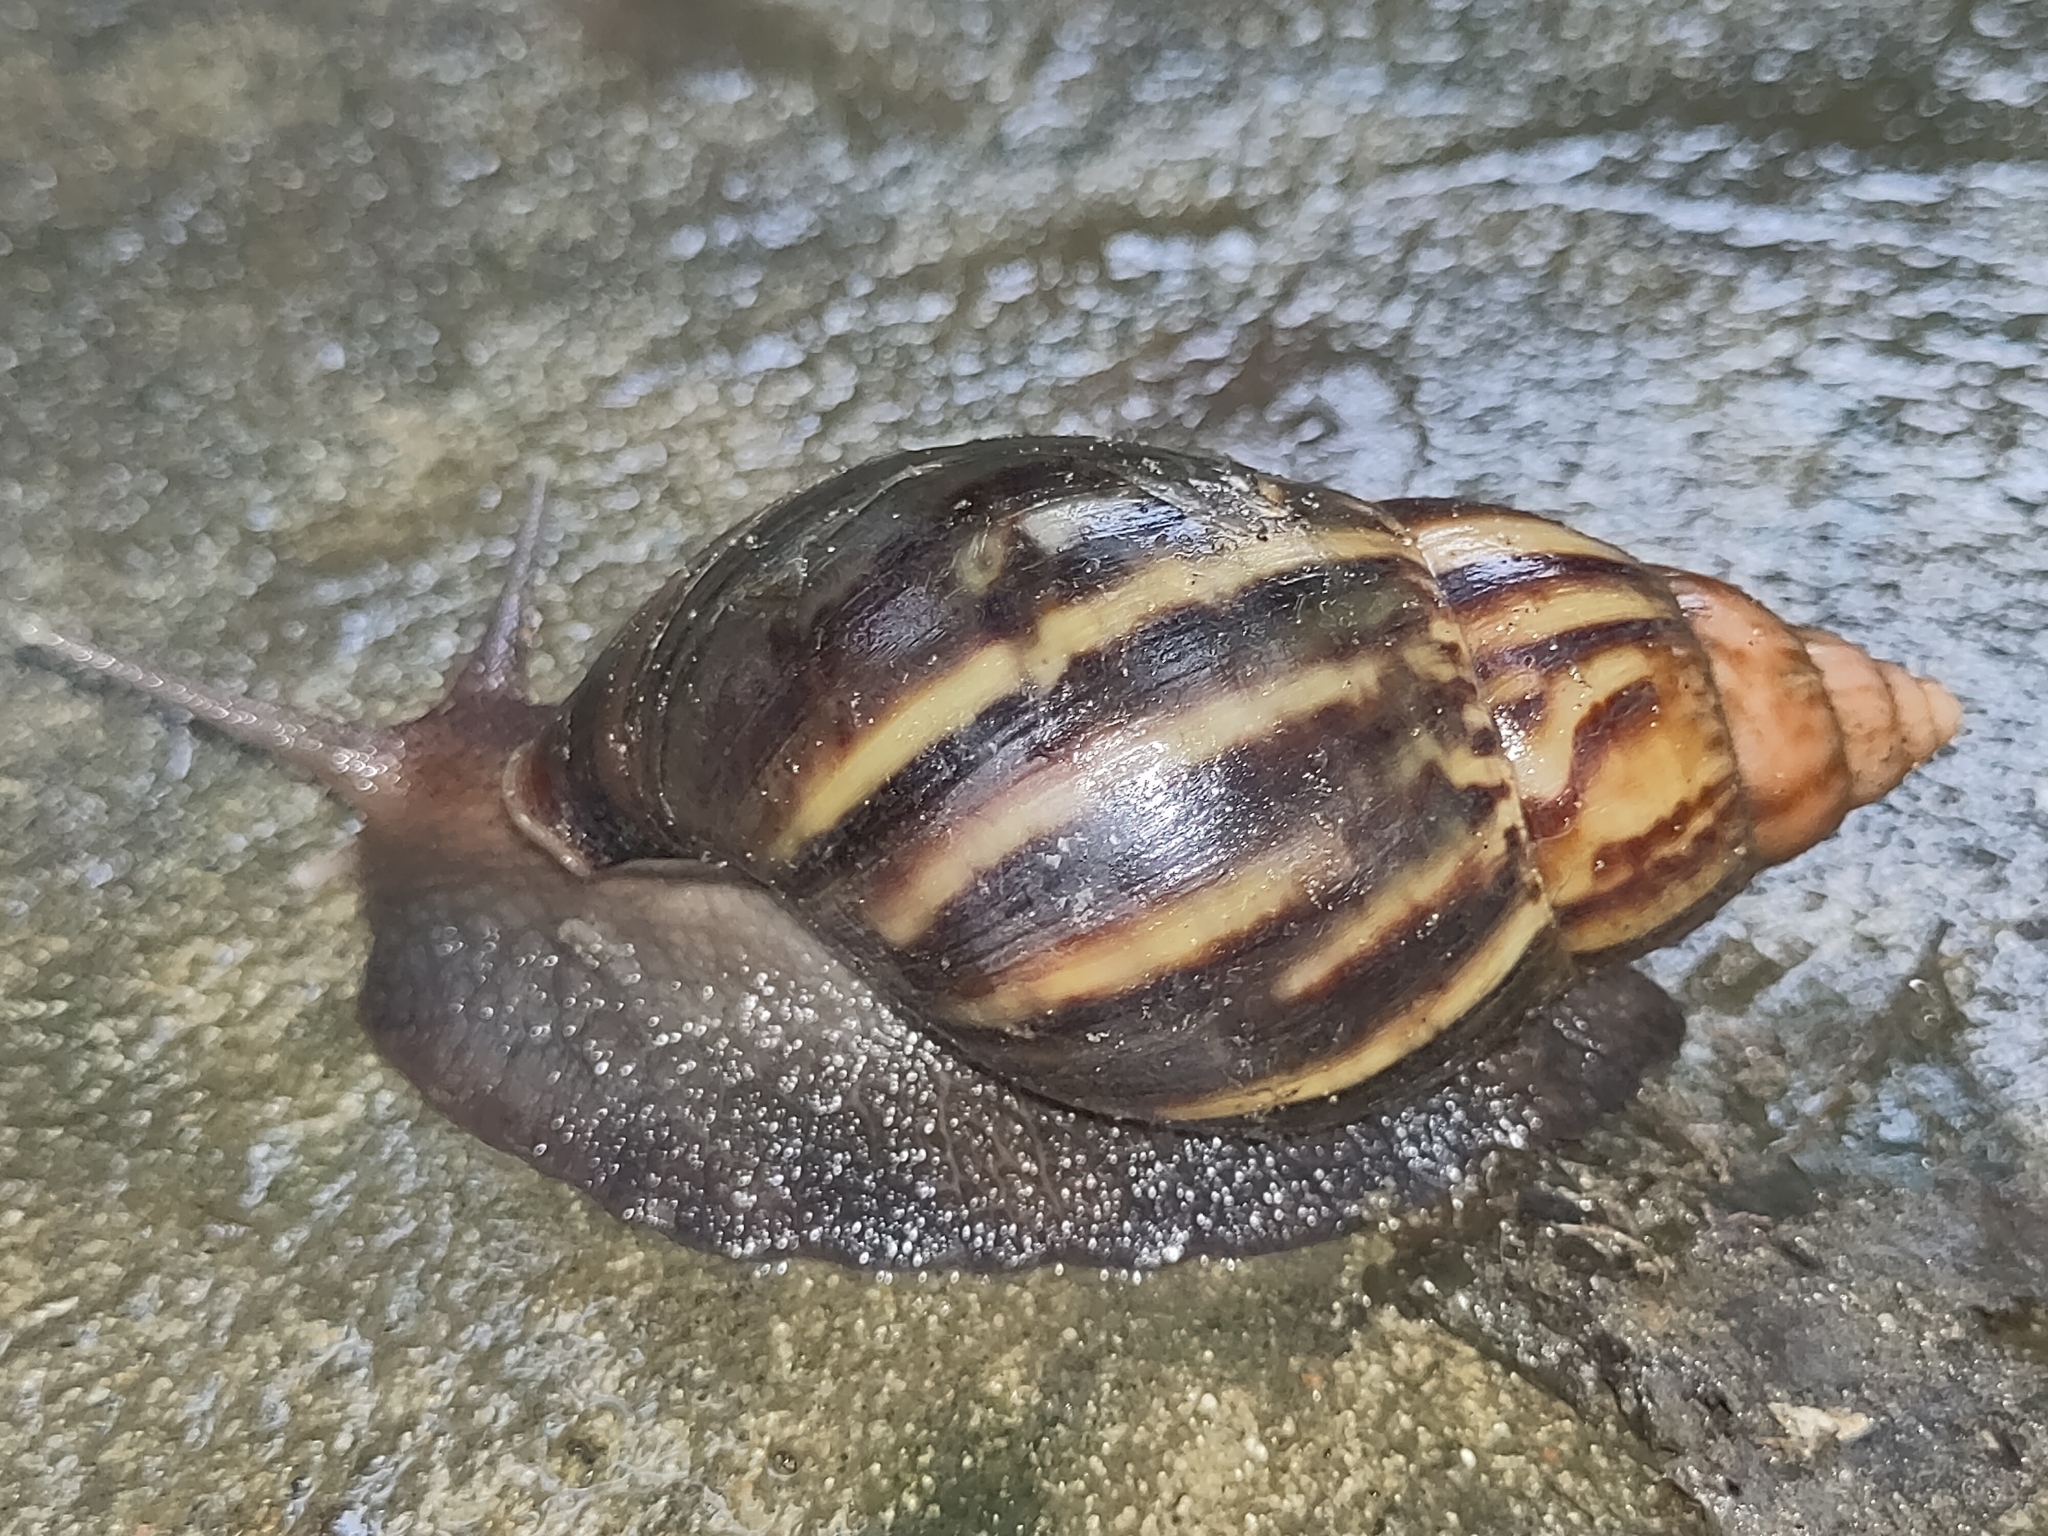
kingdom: Animalia
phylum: Mollusca
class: Gastropoda
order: Stylommatophora
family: Achatinidae
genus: Lissachatina
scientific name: Lissachatina fulica
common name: Giant african snail
